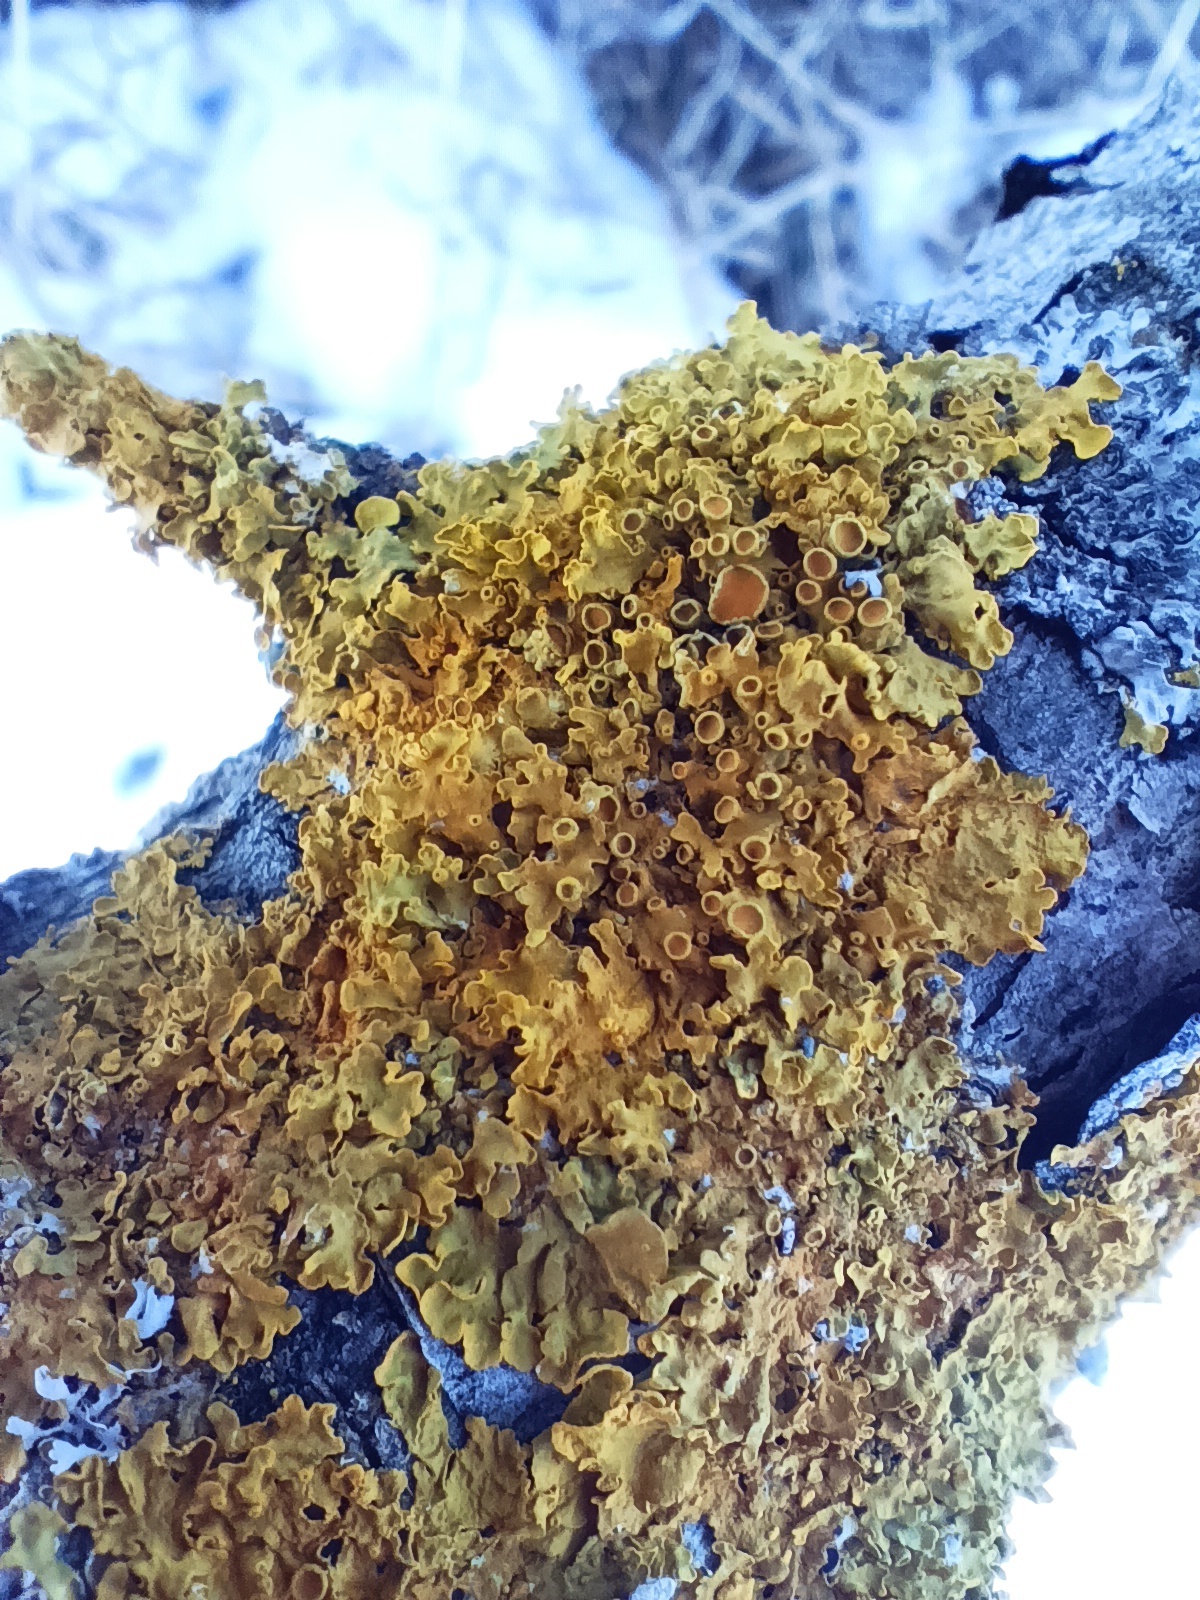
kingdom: Fungi
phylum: Ascomycota
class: Lecanoromycetes
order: Teloschistales
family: Teloschistaceae
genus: Xanthoria
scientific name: Xanthoria parietina
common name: Common orange lichen
